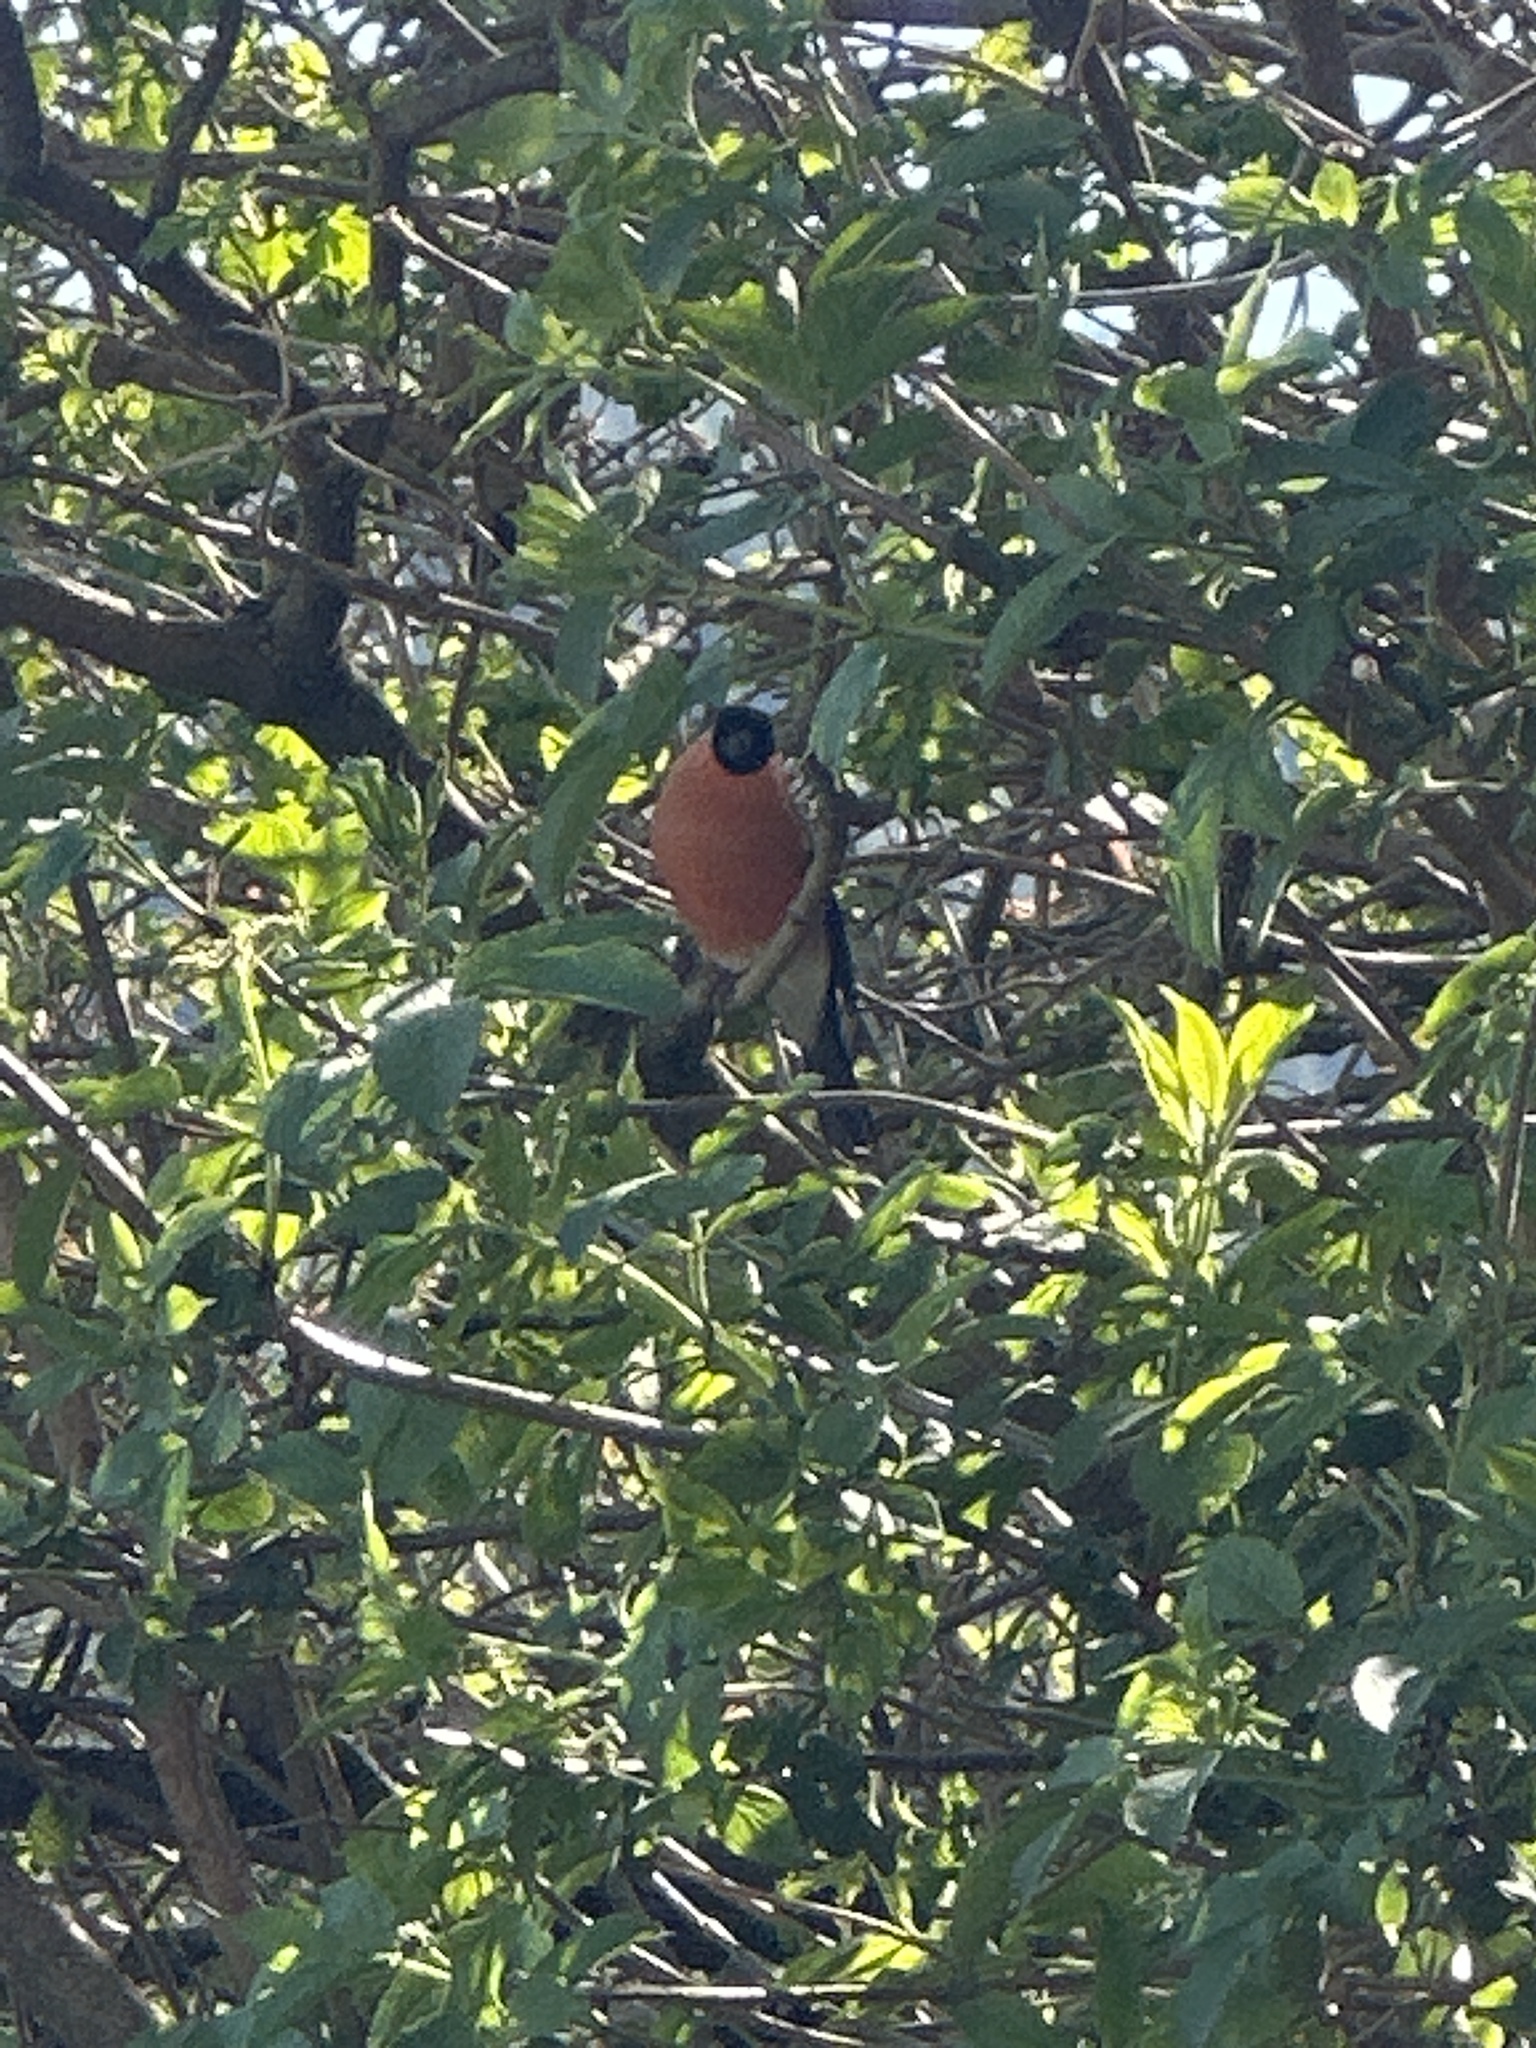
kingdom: Animalia
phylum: Chordata
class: Aves
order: Passeriformes
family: Fringillidae
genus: Pyrrhula
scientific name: Pyrrhula pyrrhula
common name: Eurasian bullfinch
